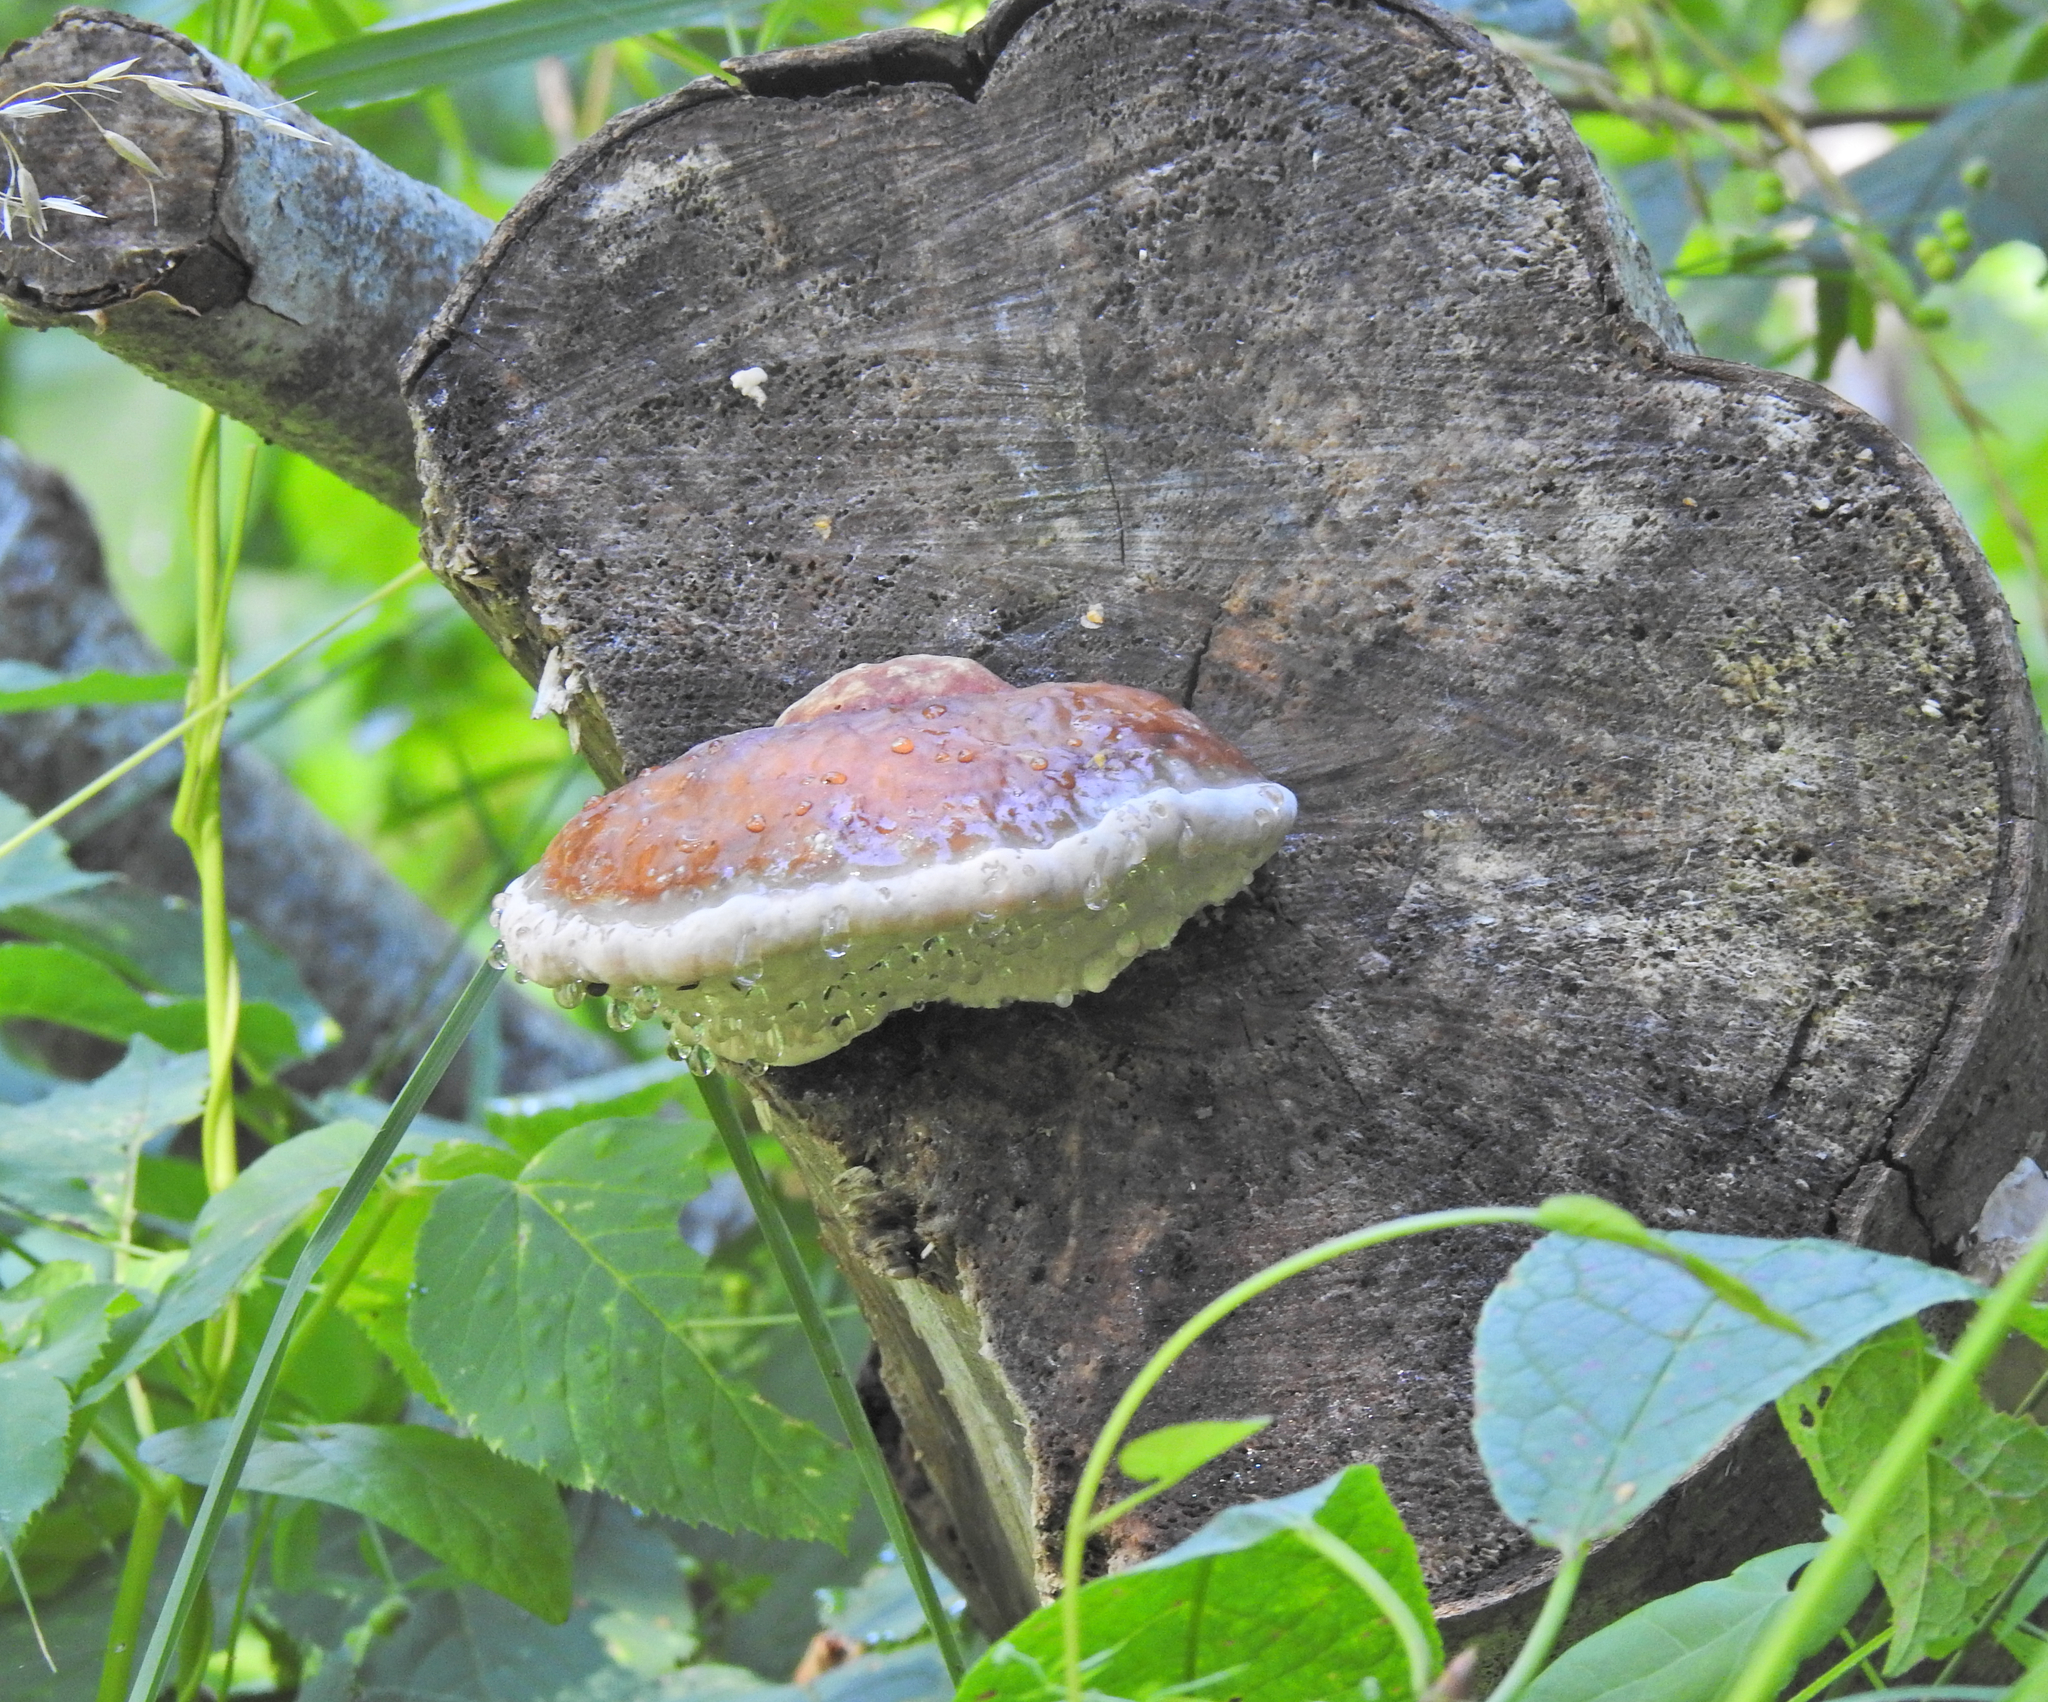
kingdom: Fungi
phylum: Basidiomycota
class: Agaricomycetes
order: Polyporales
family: Fomitopsidaceae
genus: Fomitopsis
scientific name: Fomitopsis pinicola
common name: Red-belted bracket
